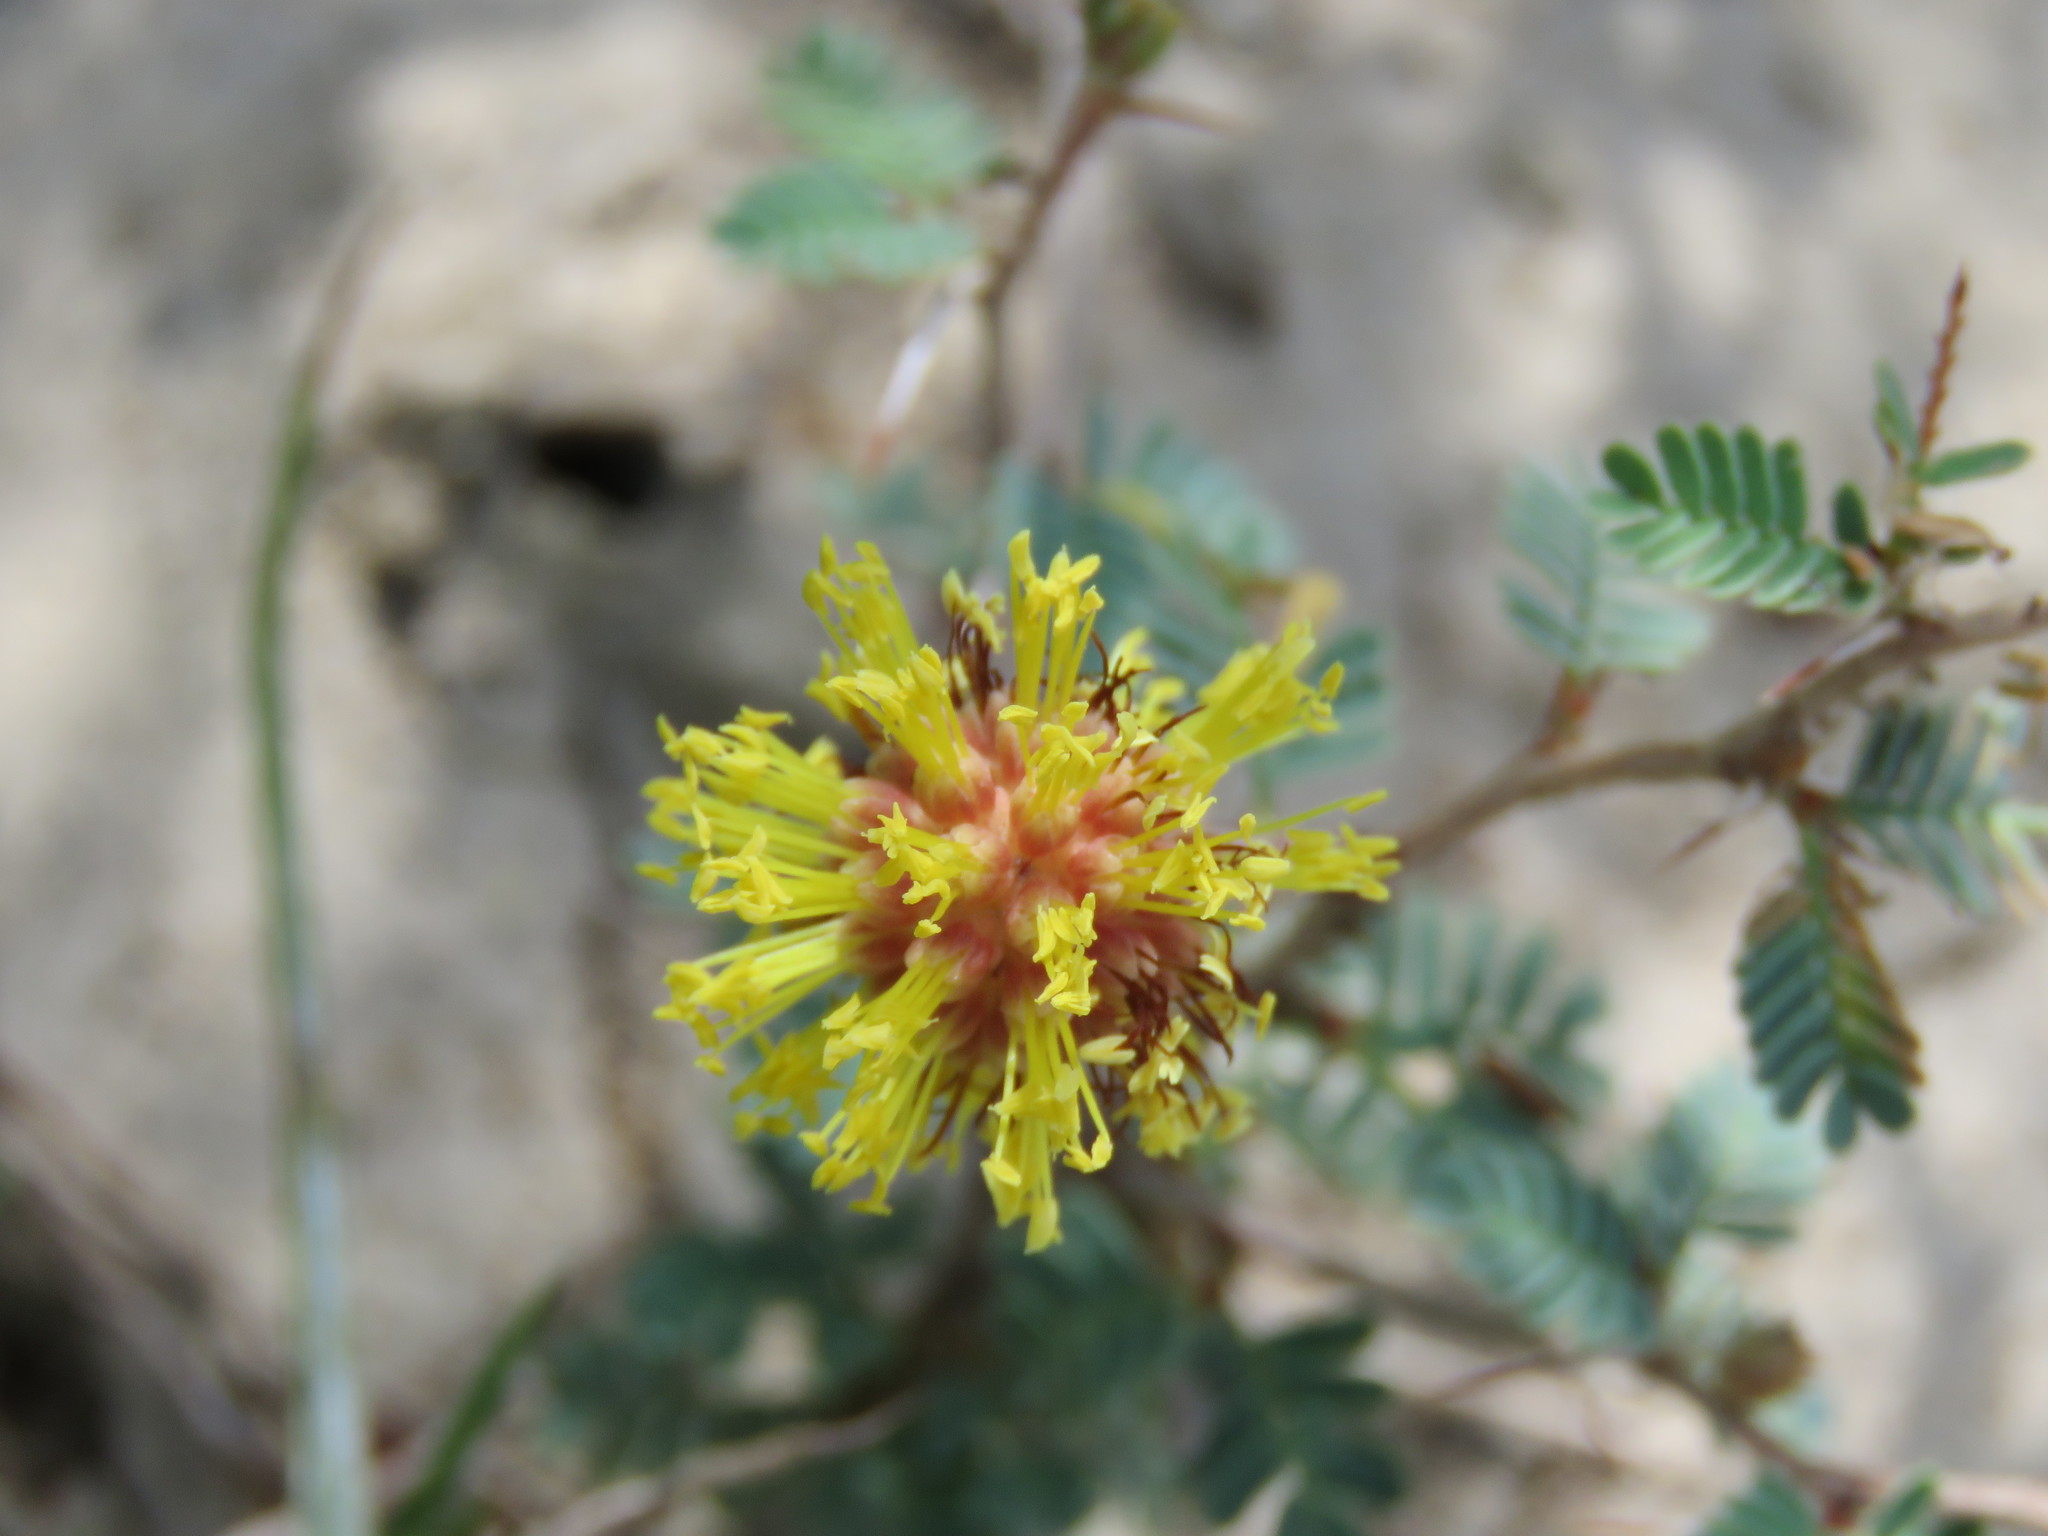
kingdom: Plantae
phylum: Tracheophyta
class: Magnoliopsida
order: Fabales
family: Fabaceae
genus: Prosopis
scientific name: Prosopis cinerascens
